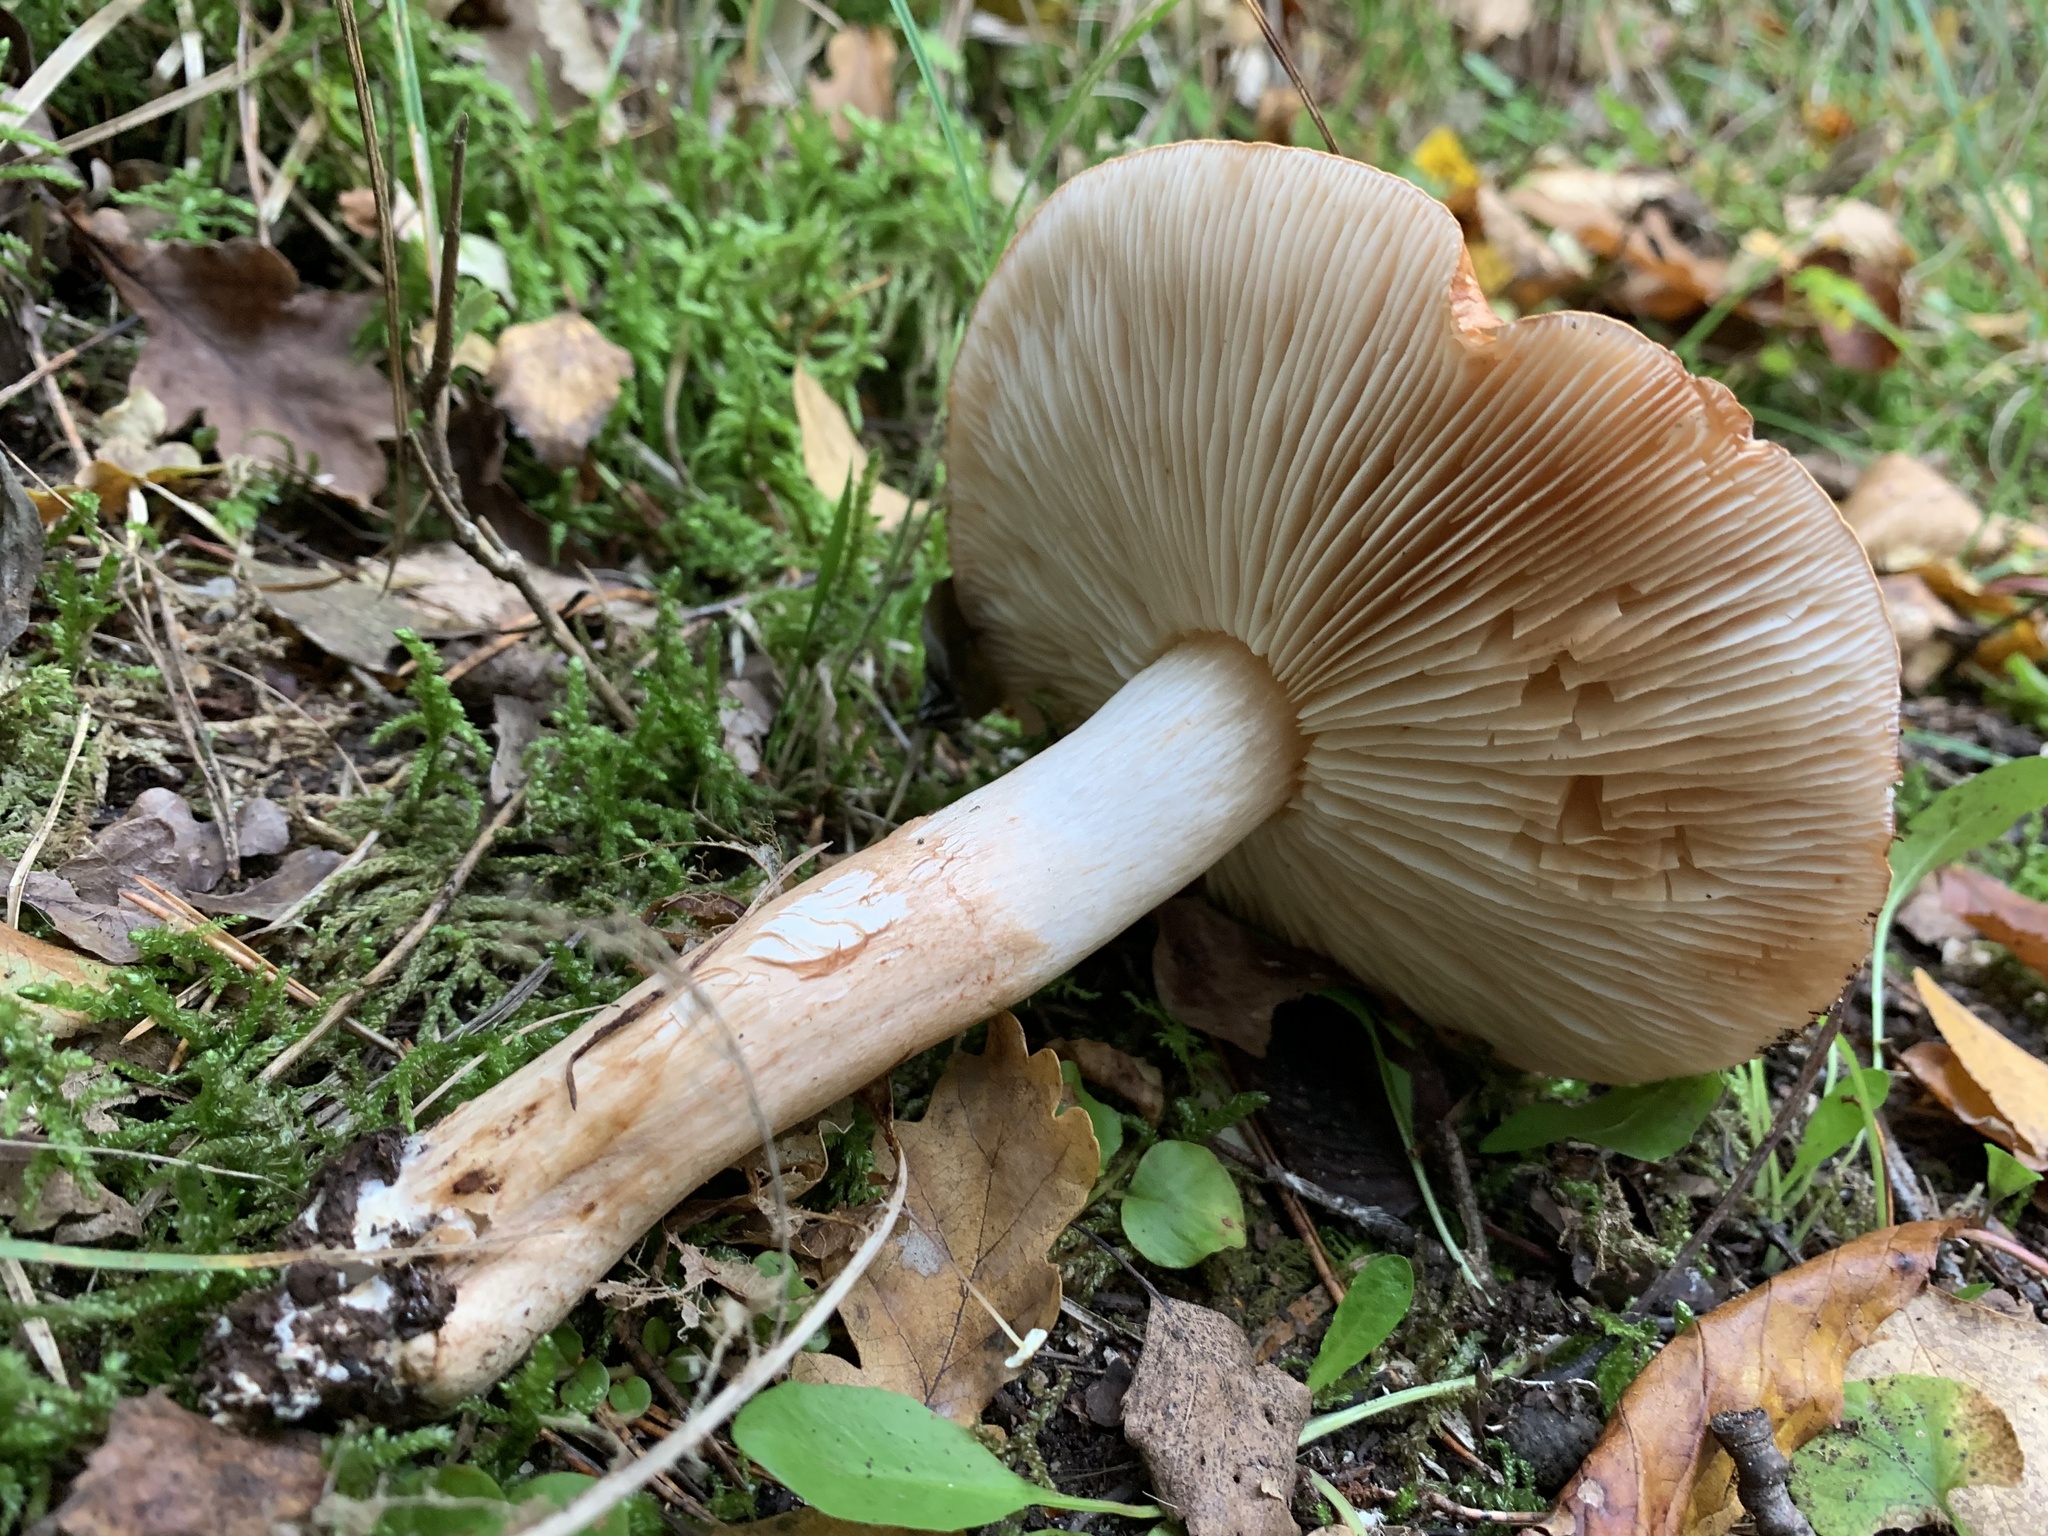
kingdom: Fungi
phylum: Basidiomycota
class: Agaricomycetes
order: Agaricales
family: Tricholomataceae
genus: Tricholoma
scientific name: Tricholoma fracticum
